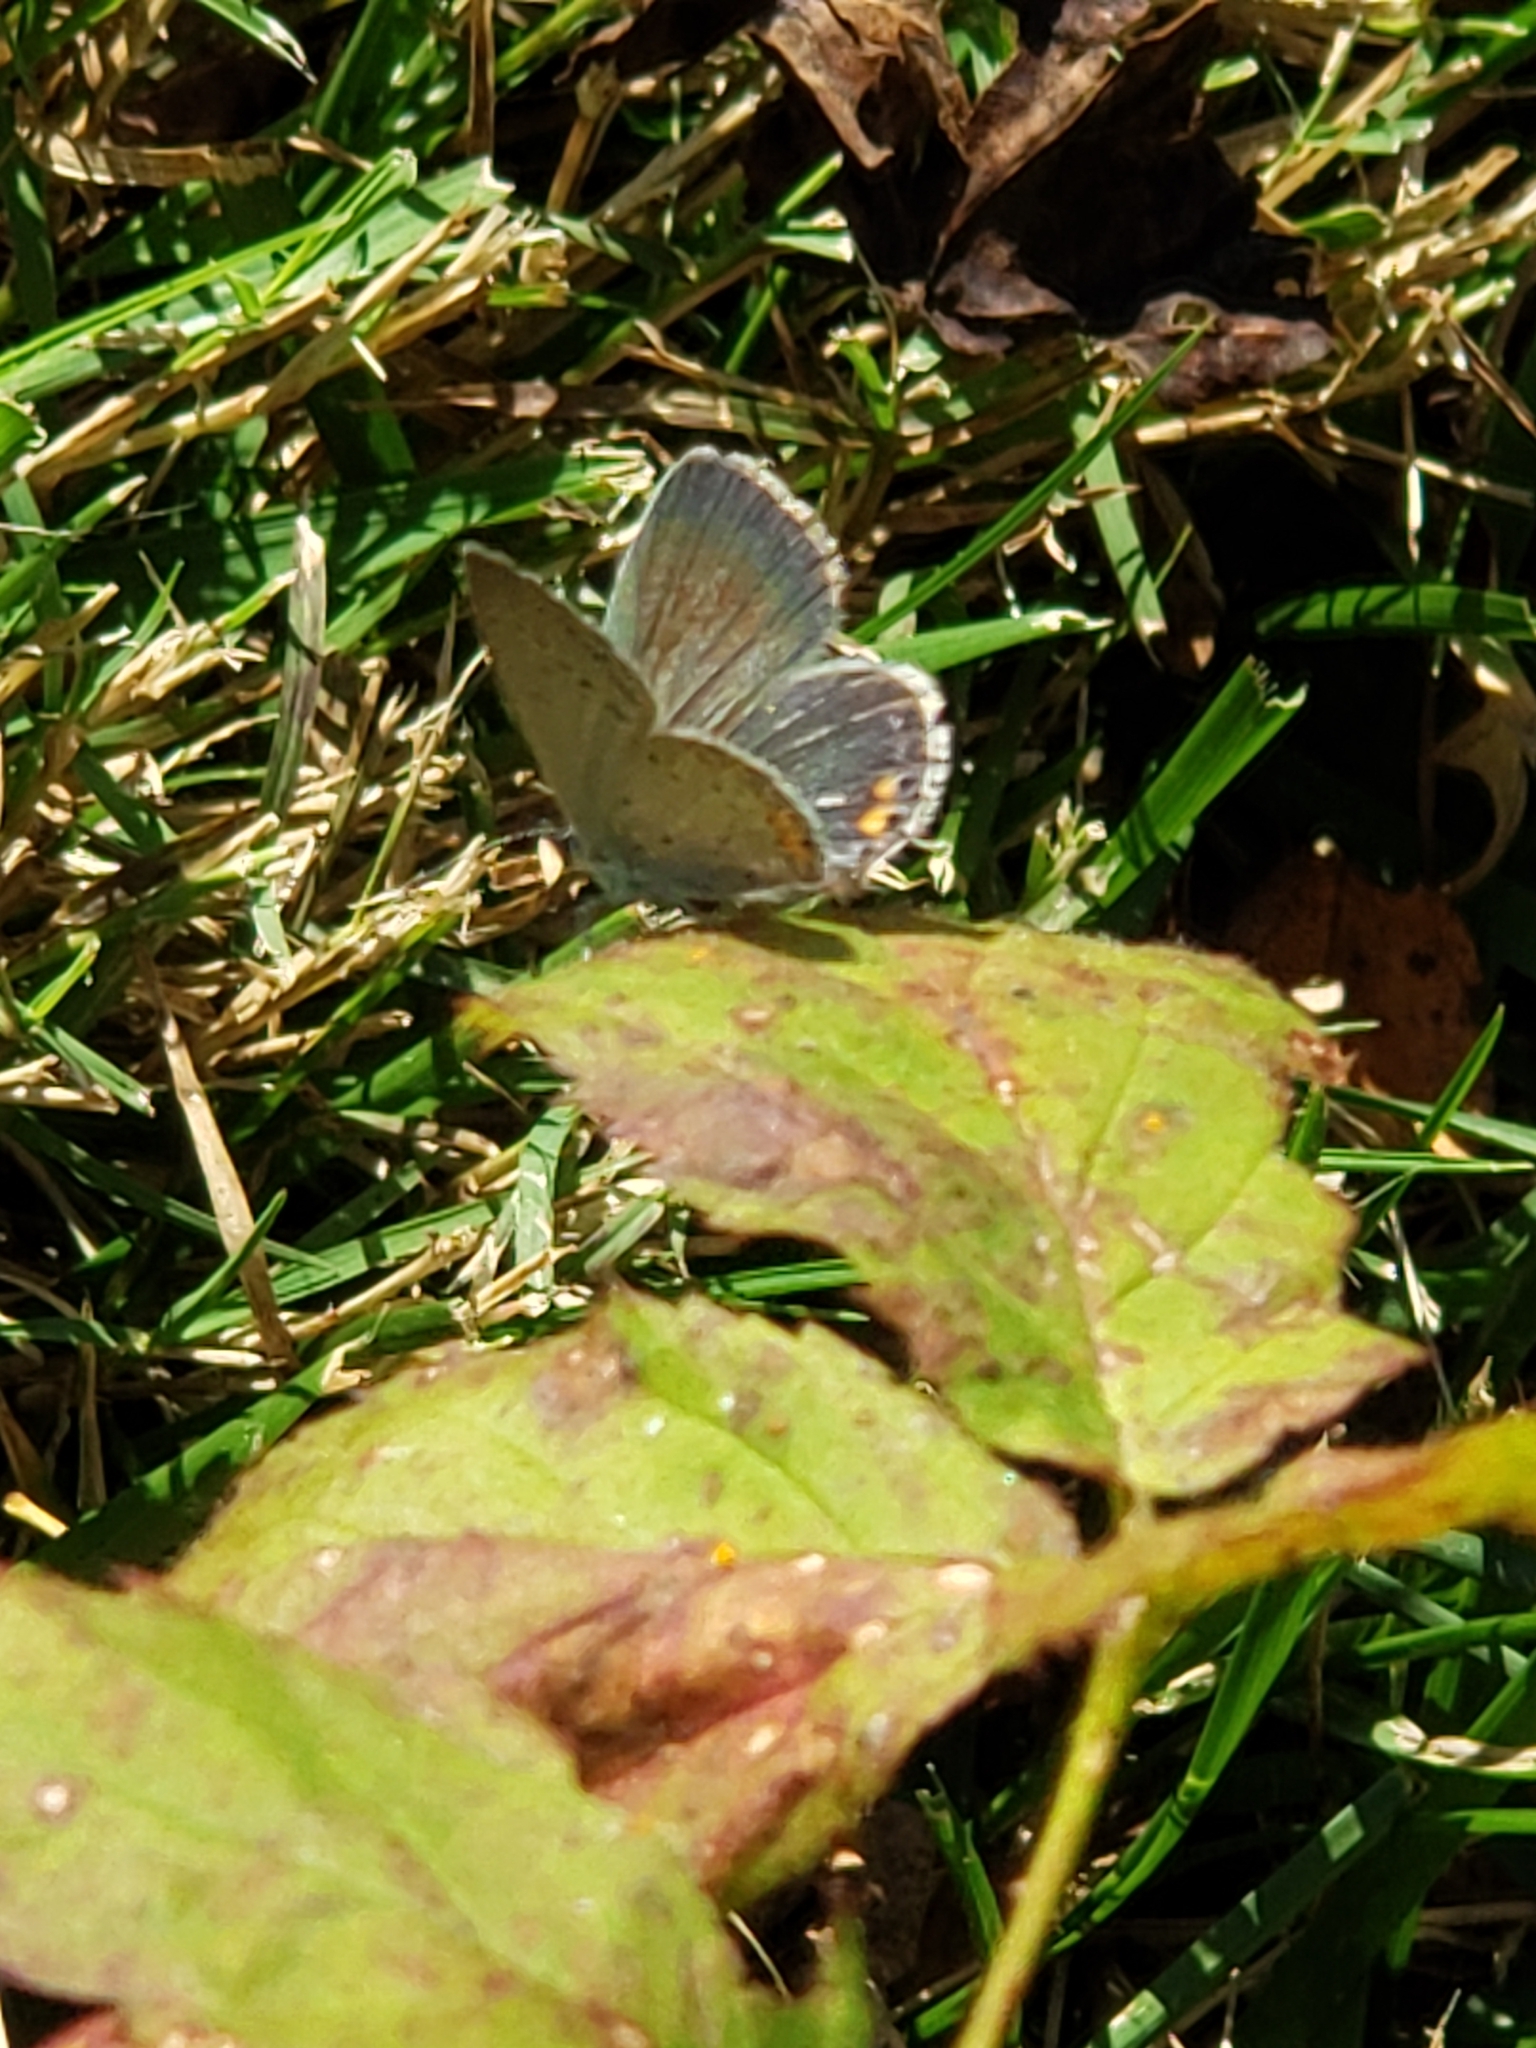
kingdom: Animalia
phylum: Arthropoda
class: Insecta
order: Lepidoptera
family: Lycaenidae
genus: Elkalyce
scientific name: Elkalyce comyntas
